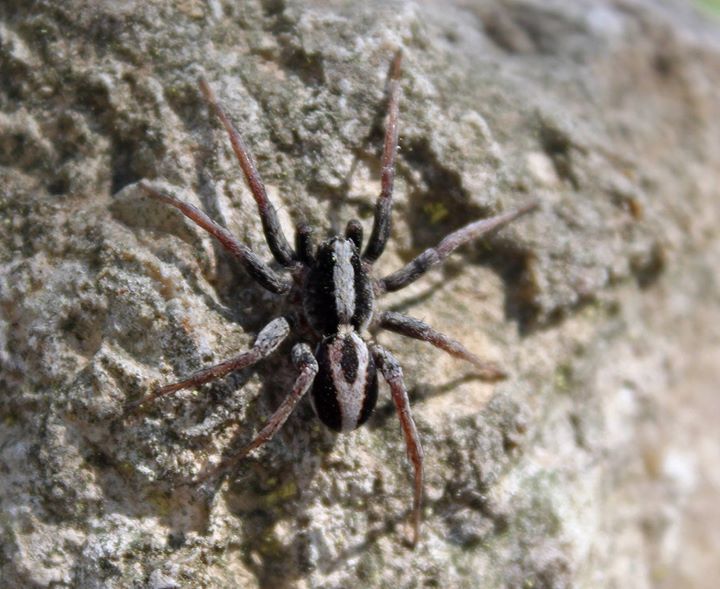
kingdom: Animalia
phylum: Arthropoda
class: Arachnida
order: Araneae
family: Lycosidae
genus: Alopecosa
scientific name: Alopecosa albofasciata
